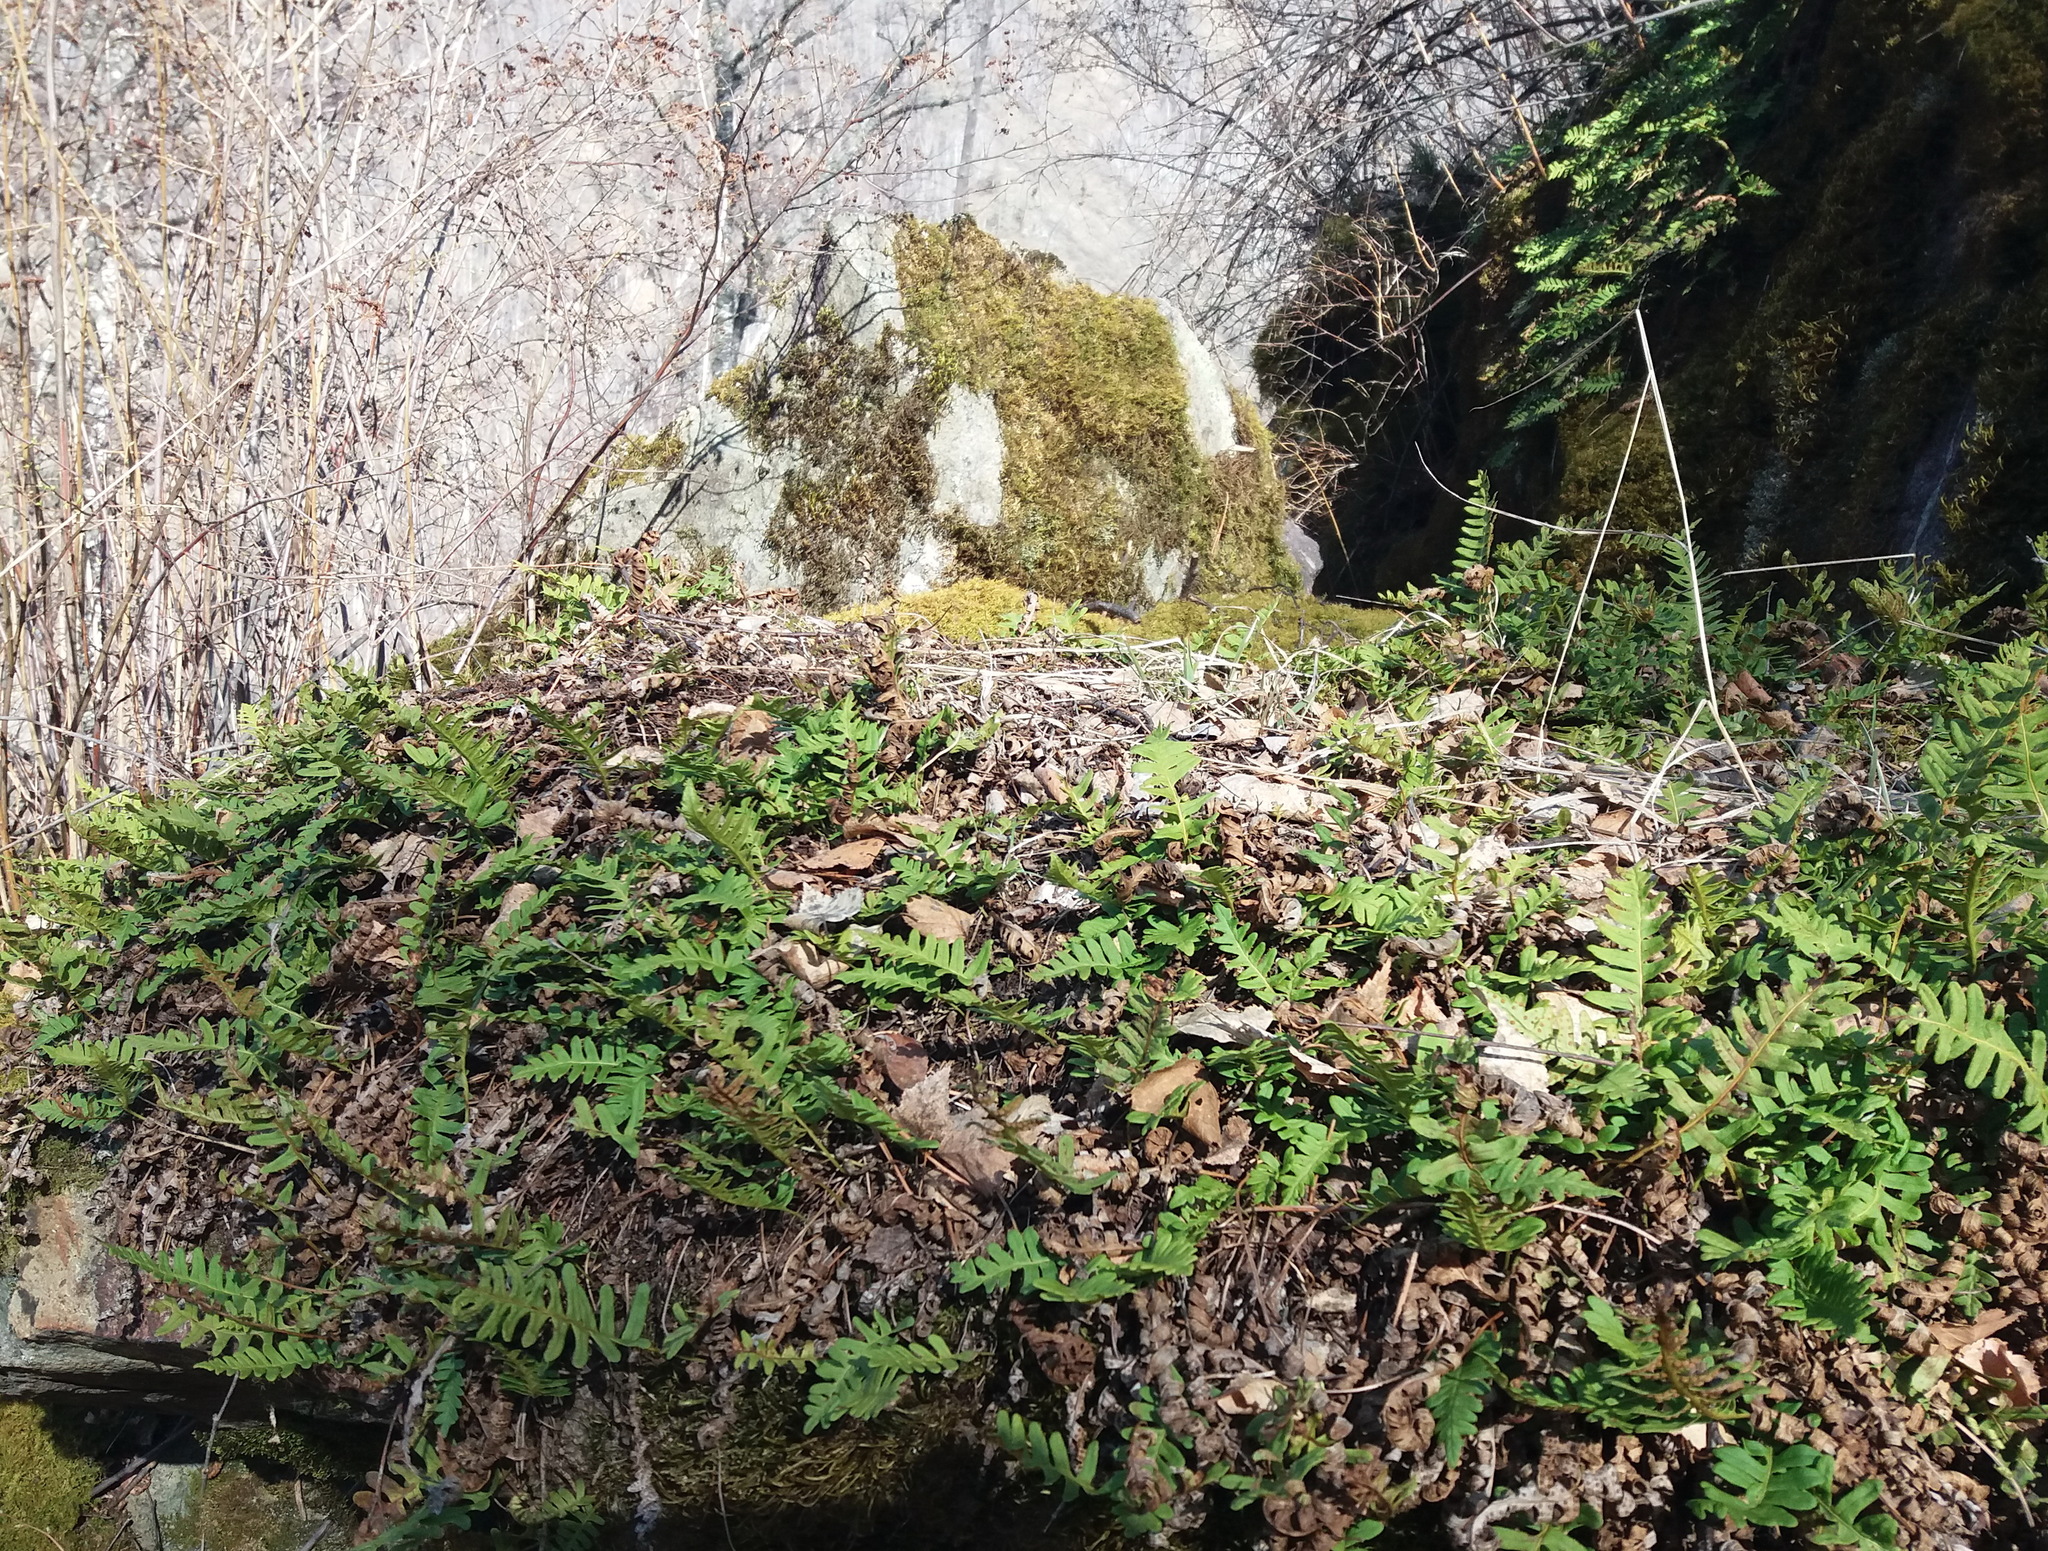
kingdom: Plantae
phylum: Tracheophyta
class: Polypodiopsida
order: Polypodiales
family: Polypodiaceae
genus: Polypodium
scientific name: Polypodium vulgare
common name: Common polypody
